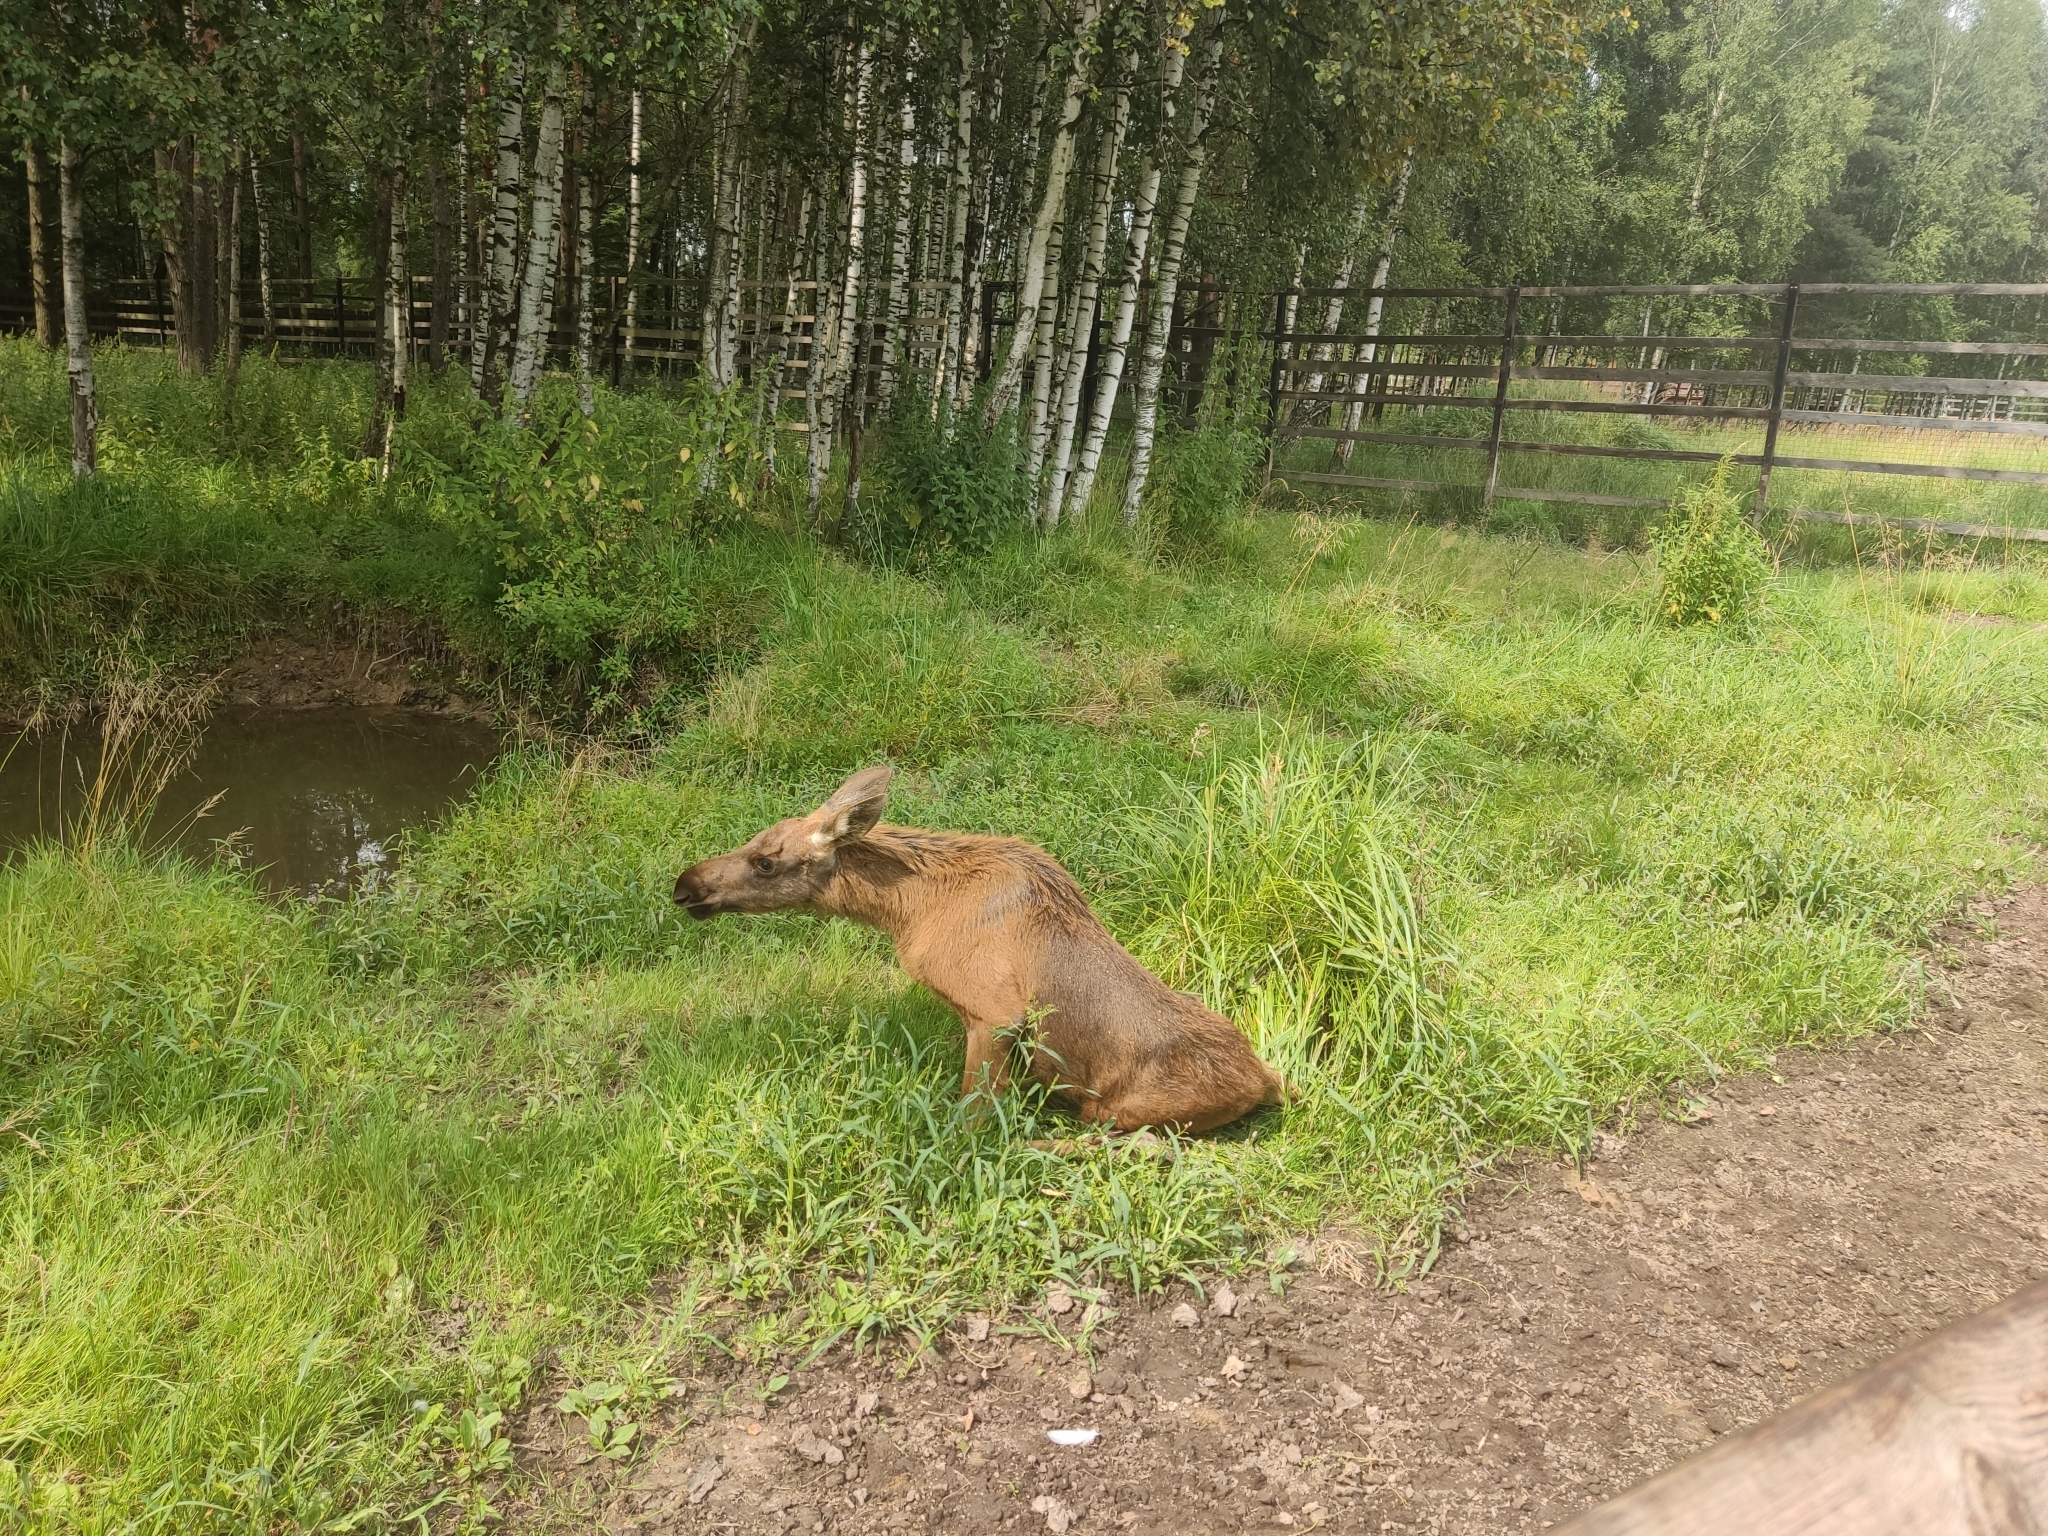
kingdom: Animalia
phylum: Chordata
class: Mammalia
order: Artiodactyla
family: Cervidae
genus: Alces
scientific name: Alces alces
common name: Moose
